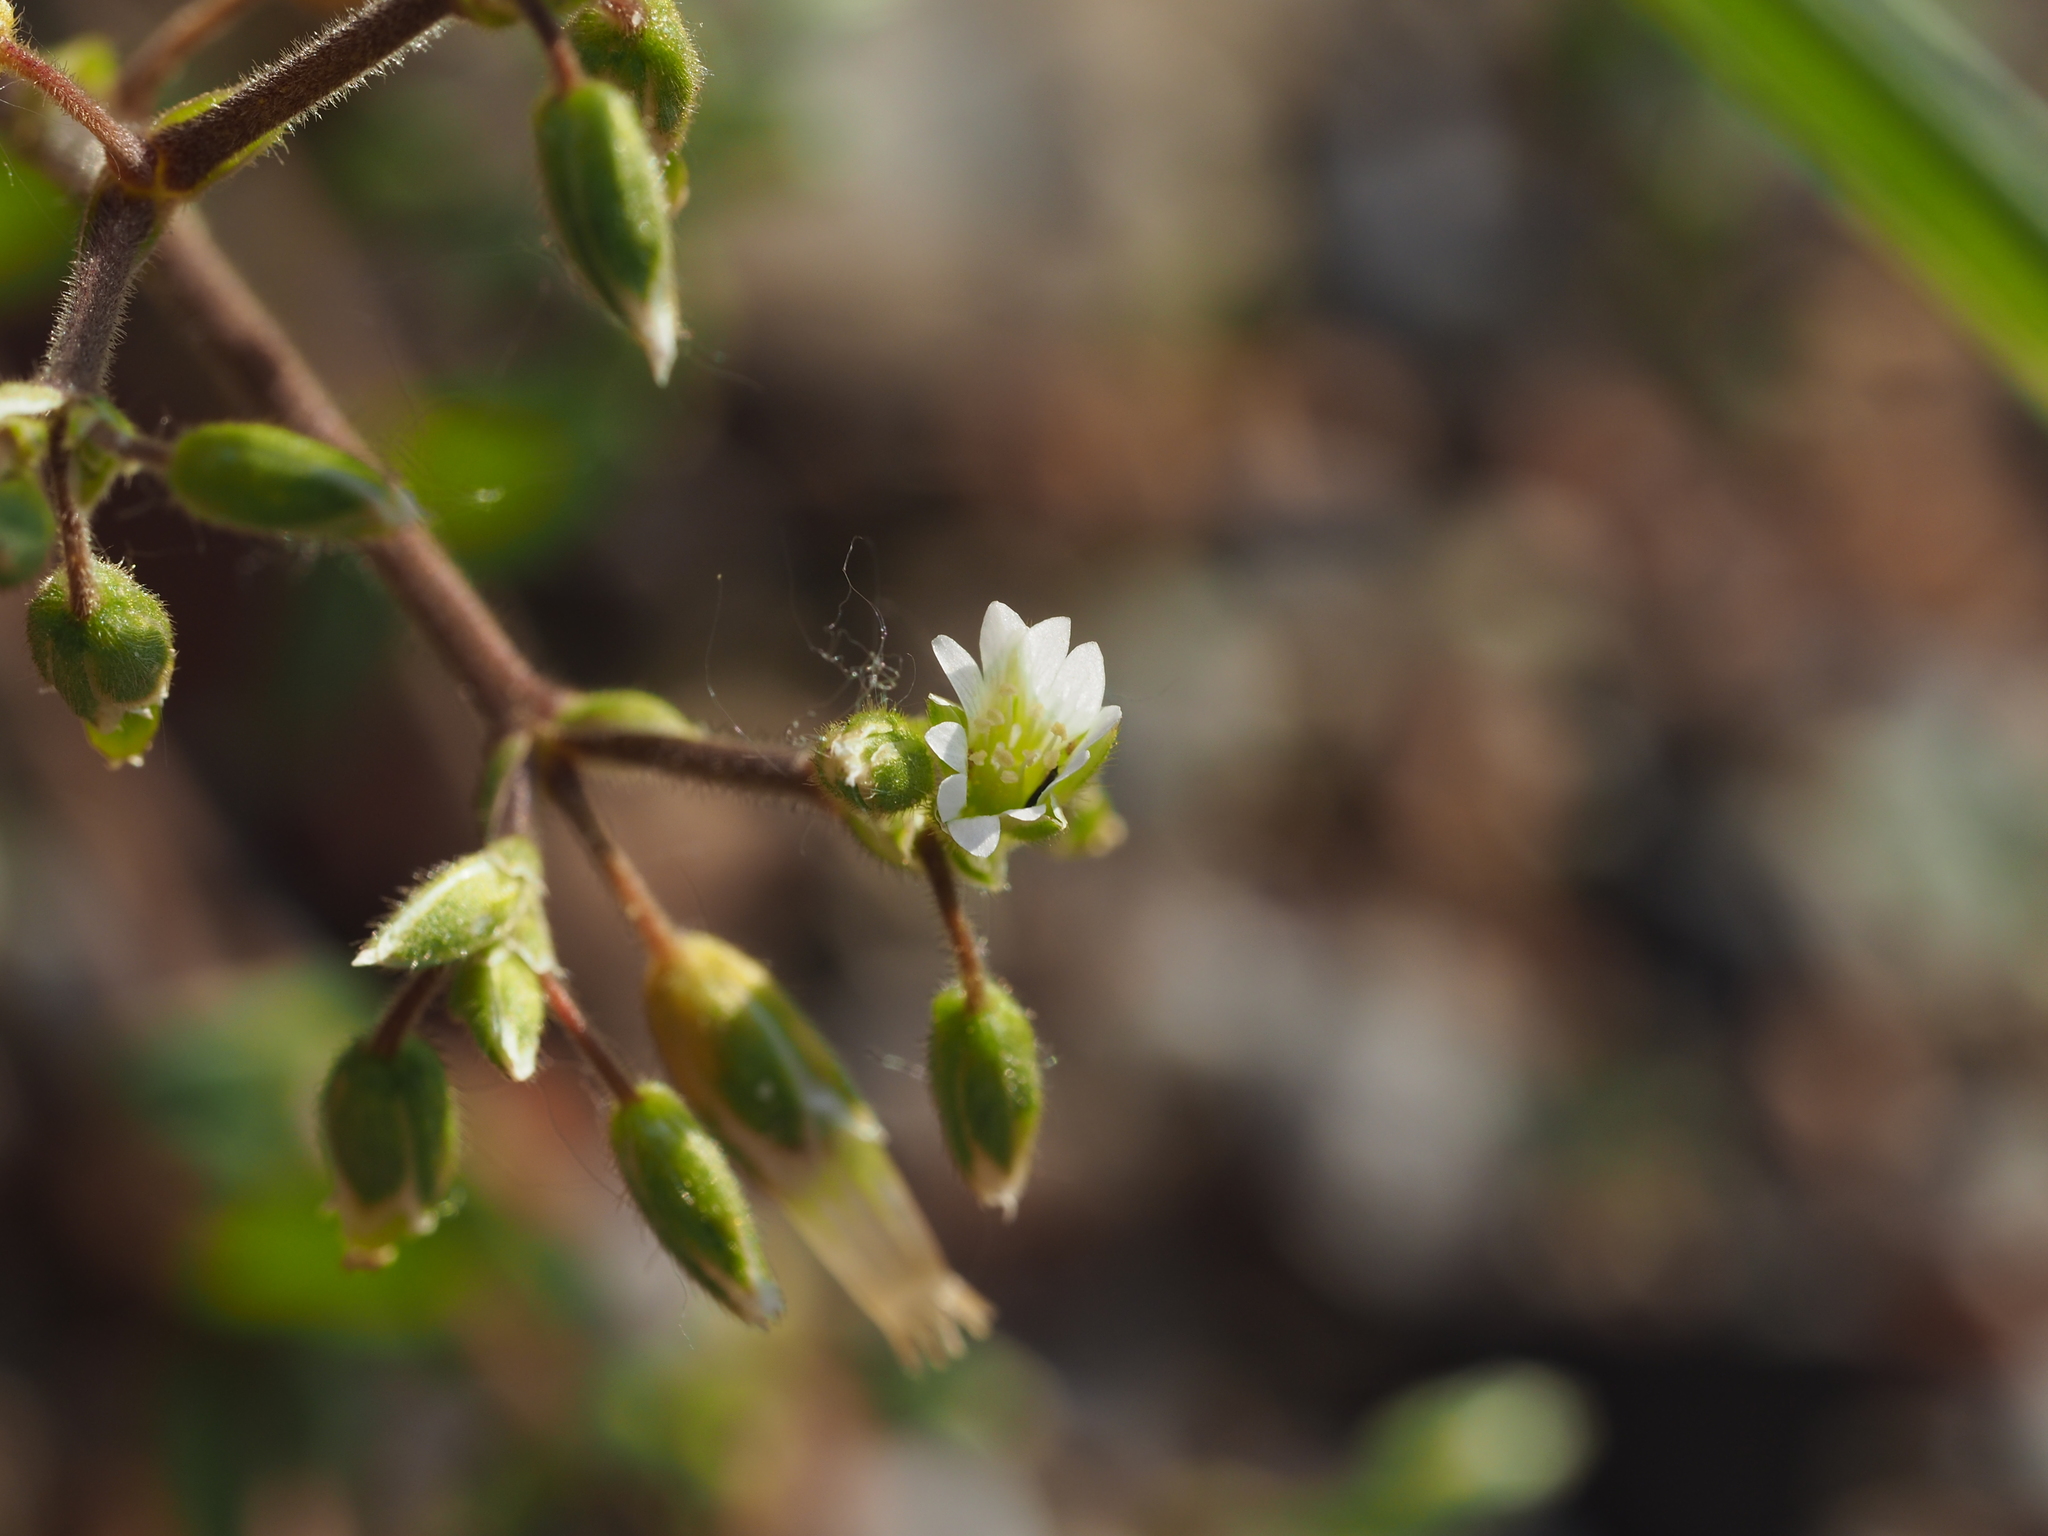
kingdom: Plantae
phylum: Tracheophyta
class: Magnoliopsida
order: Caryophyllales
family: Caryophyllaceae
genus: Cerastium
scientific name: Cerastium holosteoides
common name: Big chickweed
